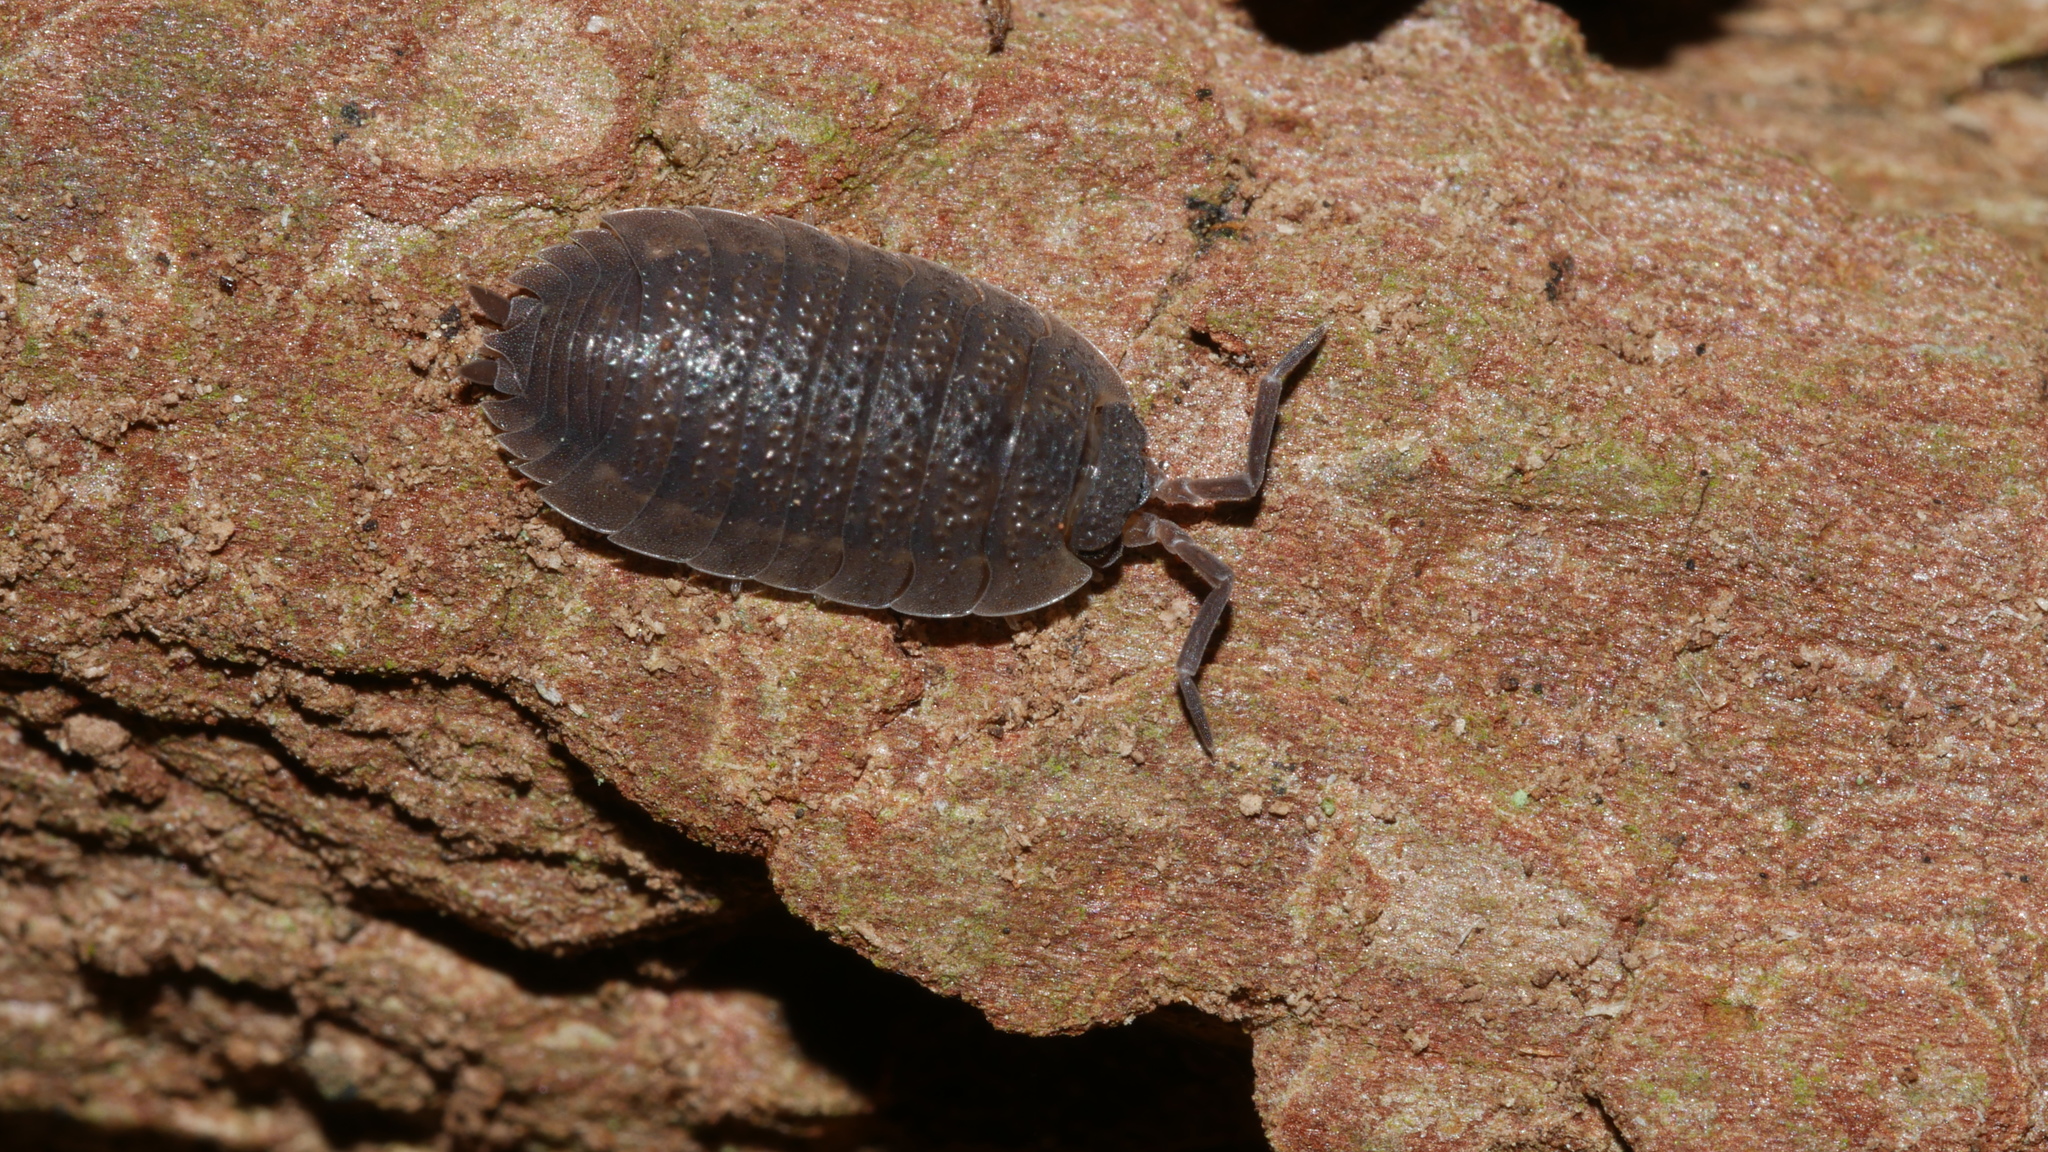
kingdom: Animalia
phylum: Arthropoda
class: Malacostraca
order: Isopoda
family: Porcellionidae
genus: Porcellio
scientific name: Porcellio scaber
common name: Common rough woodlouse
